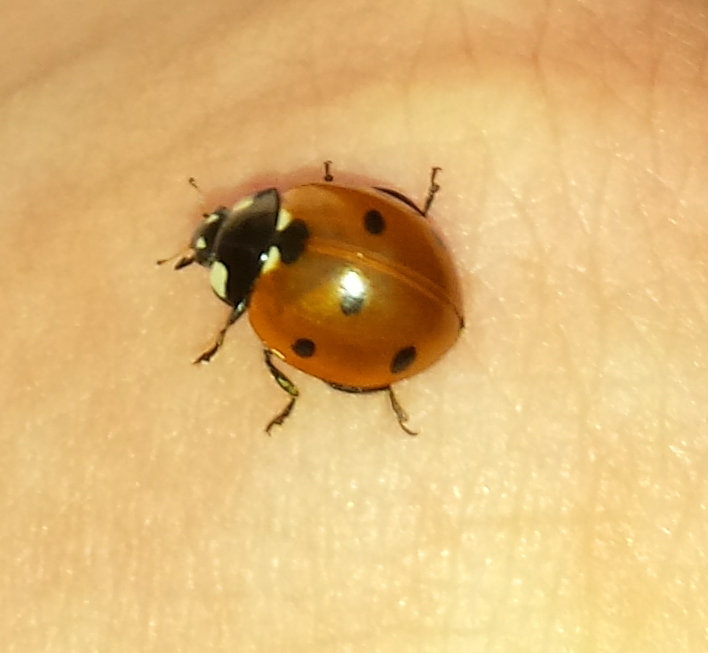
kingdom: Animalia
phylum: Arthropoda
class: Insecta
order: Coleoptera
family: Coccinellidae
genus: Coccinella
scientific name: Coccinella septempunctata
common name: Sevenspotted lady beetle
